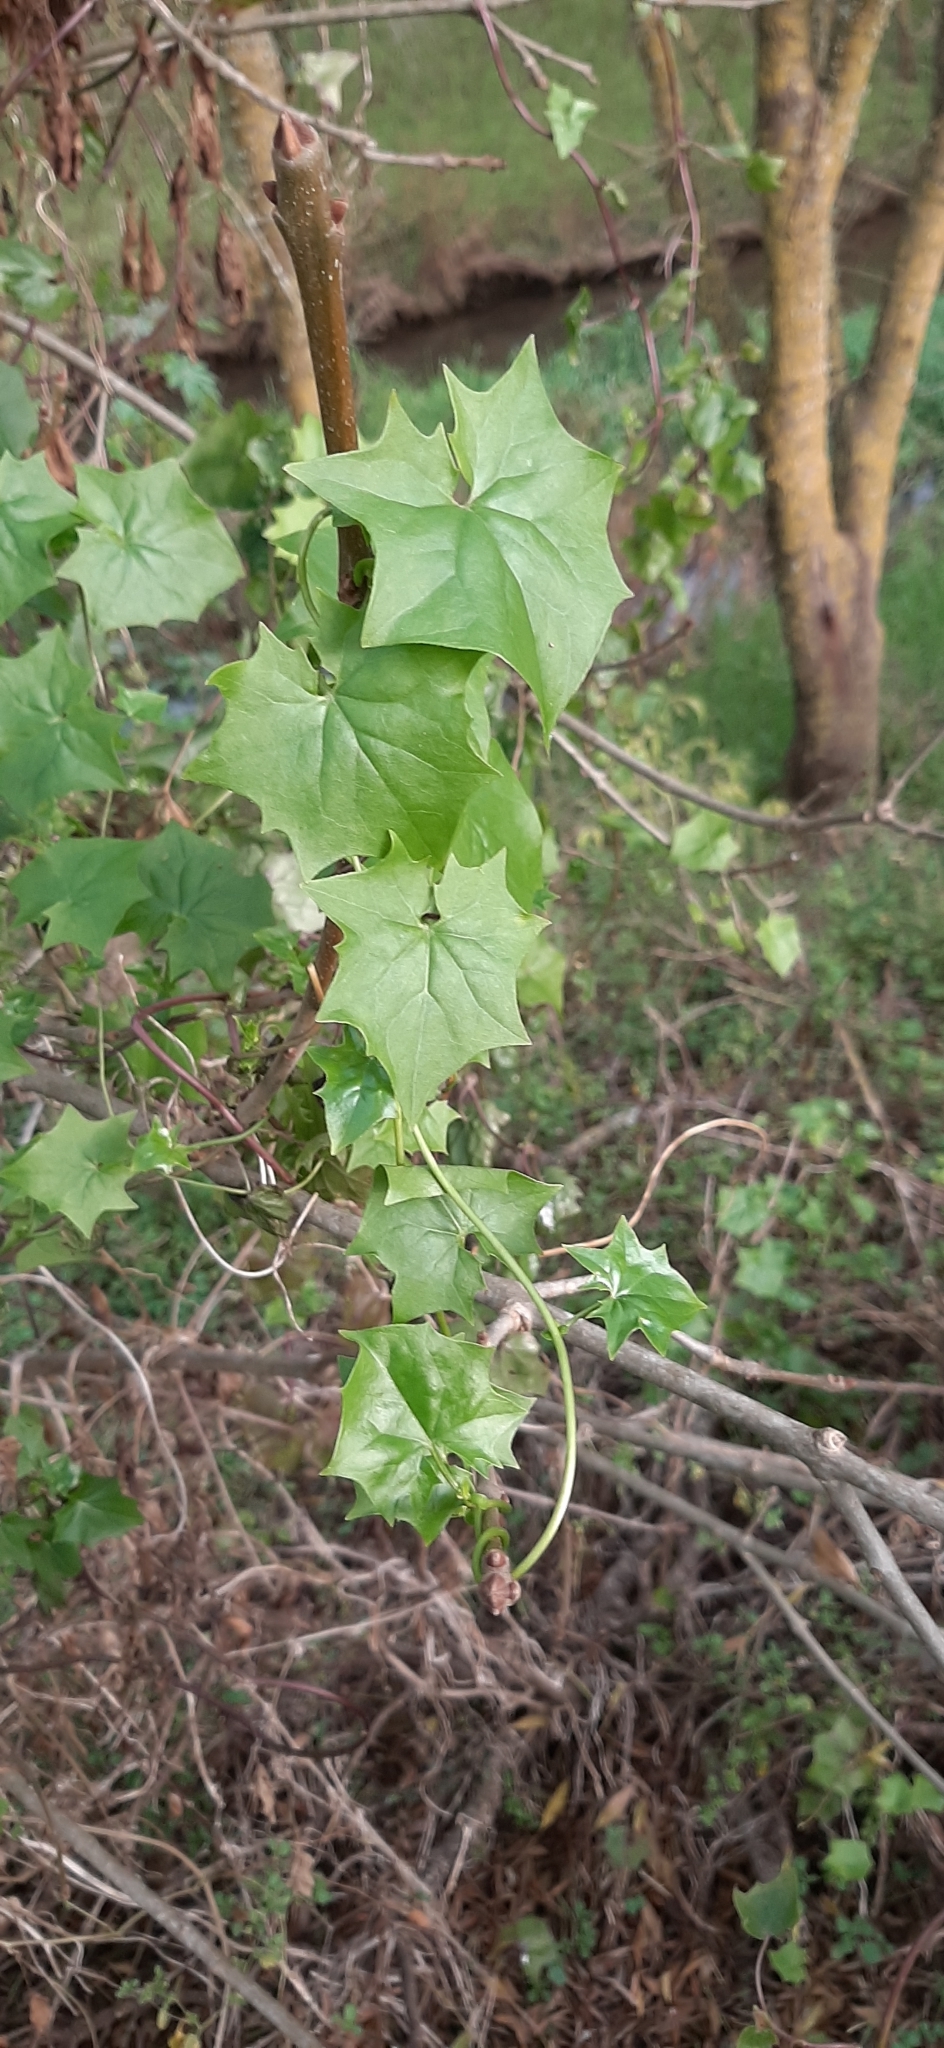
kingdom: Plantae
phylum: Tracheophyta
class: Magnoliopsida
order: Asterales
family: Asteraceae
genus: Delairea
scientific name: Delairea odorata
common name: Cape-ivy
